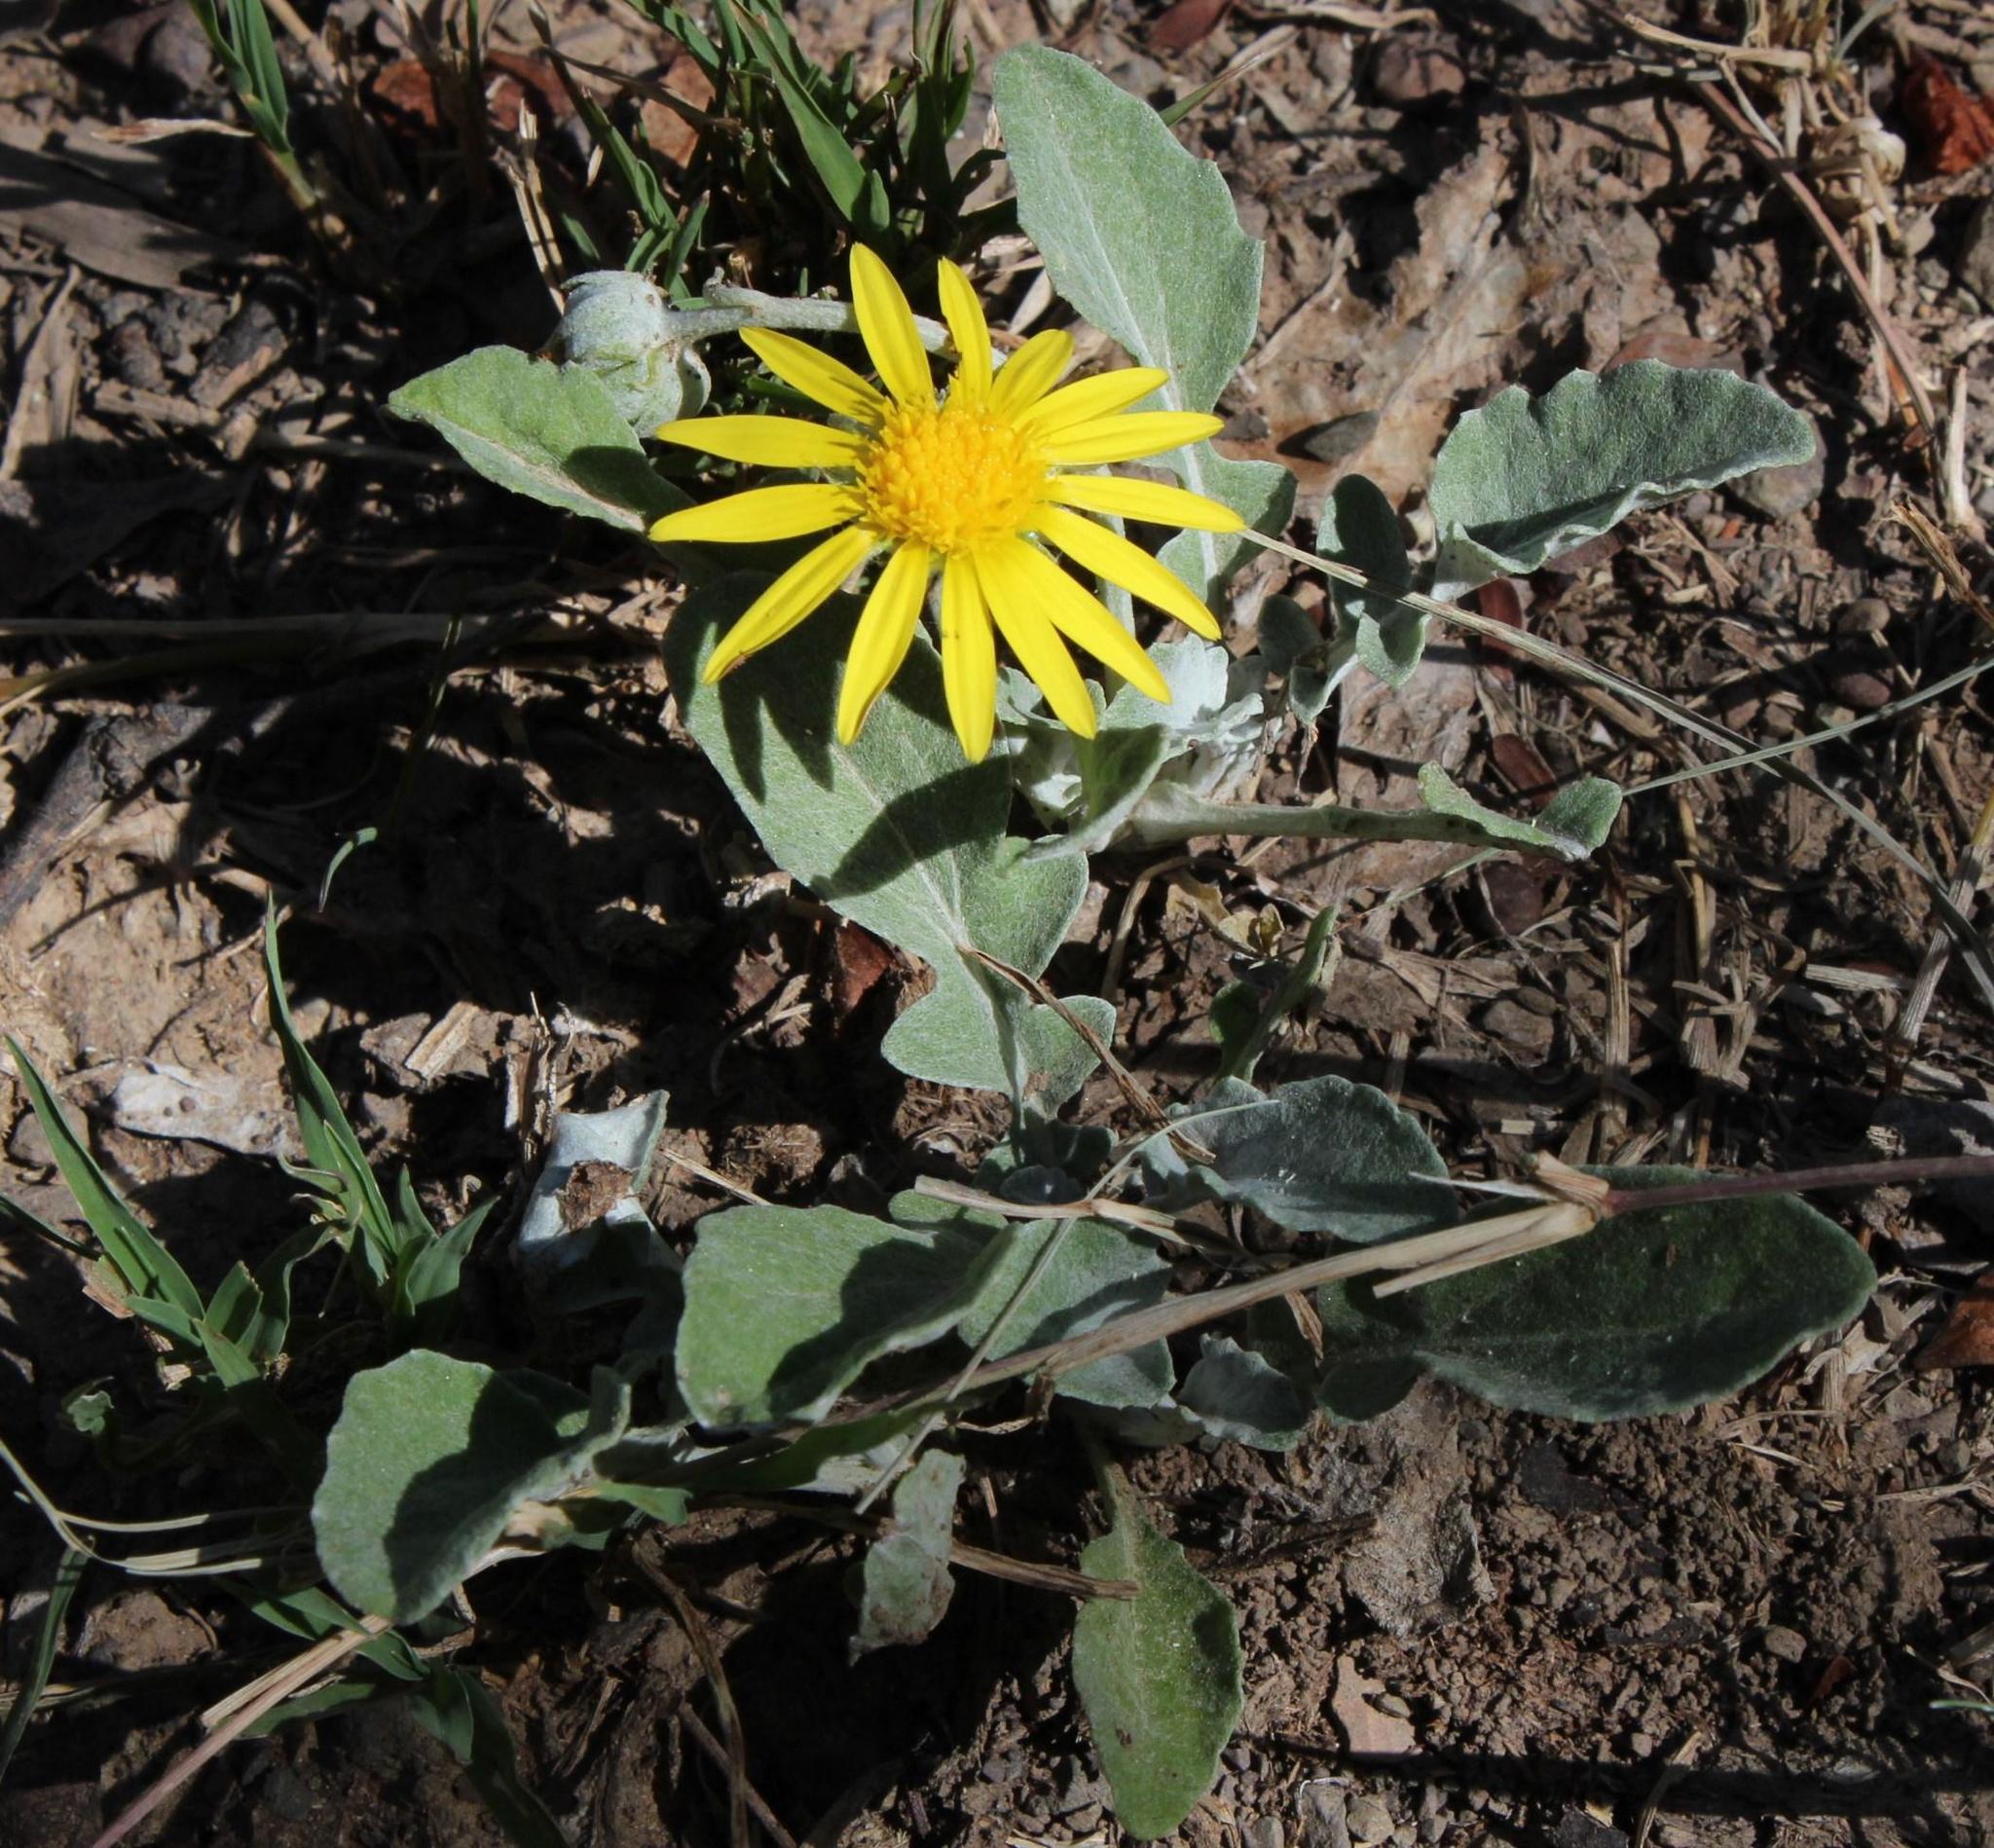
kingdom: Plantae
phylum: Tracheophyta
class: Magnoliopsida
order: Asterales
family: Asteraceae
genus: Arctotis
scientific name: Arctotis arctotoides
